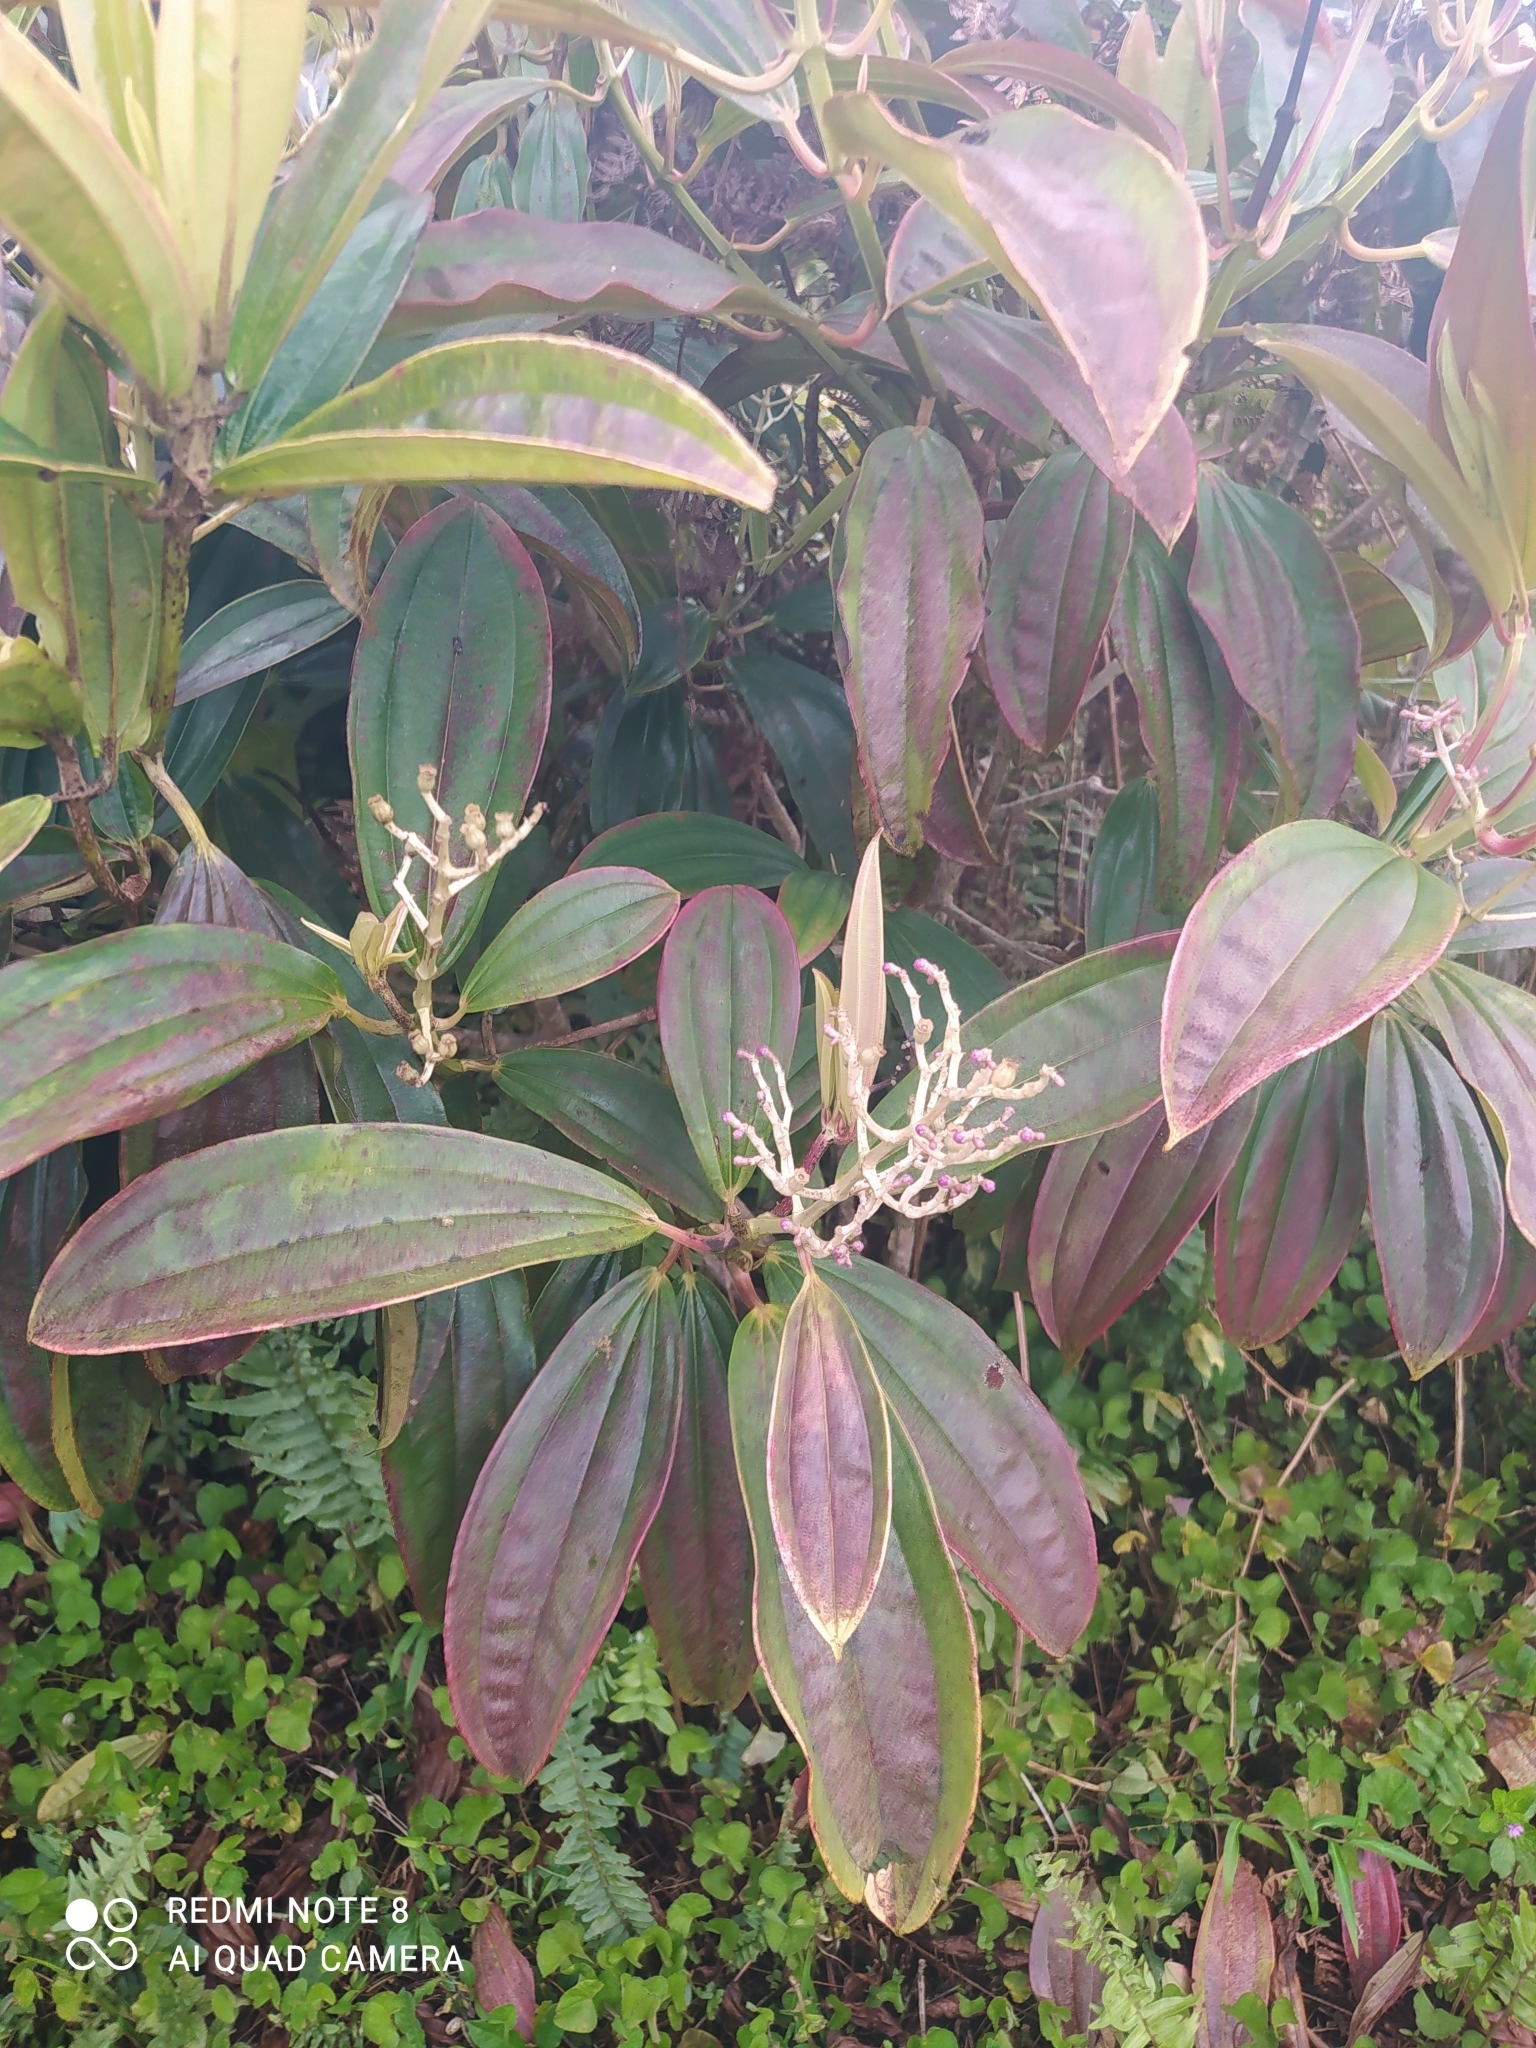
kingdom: Plantae
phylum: Tracheophyta
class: Magnoliopsida
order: Myrtales
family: Melastomataceae
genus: Miconia
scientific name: Miconia robinsoniana
